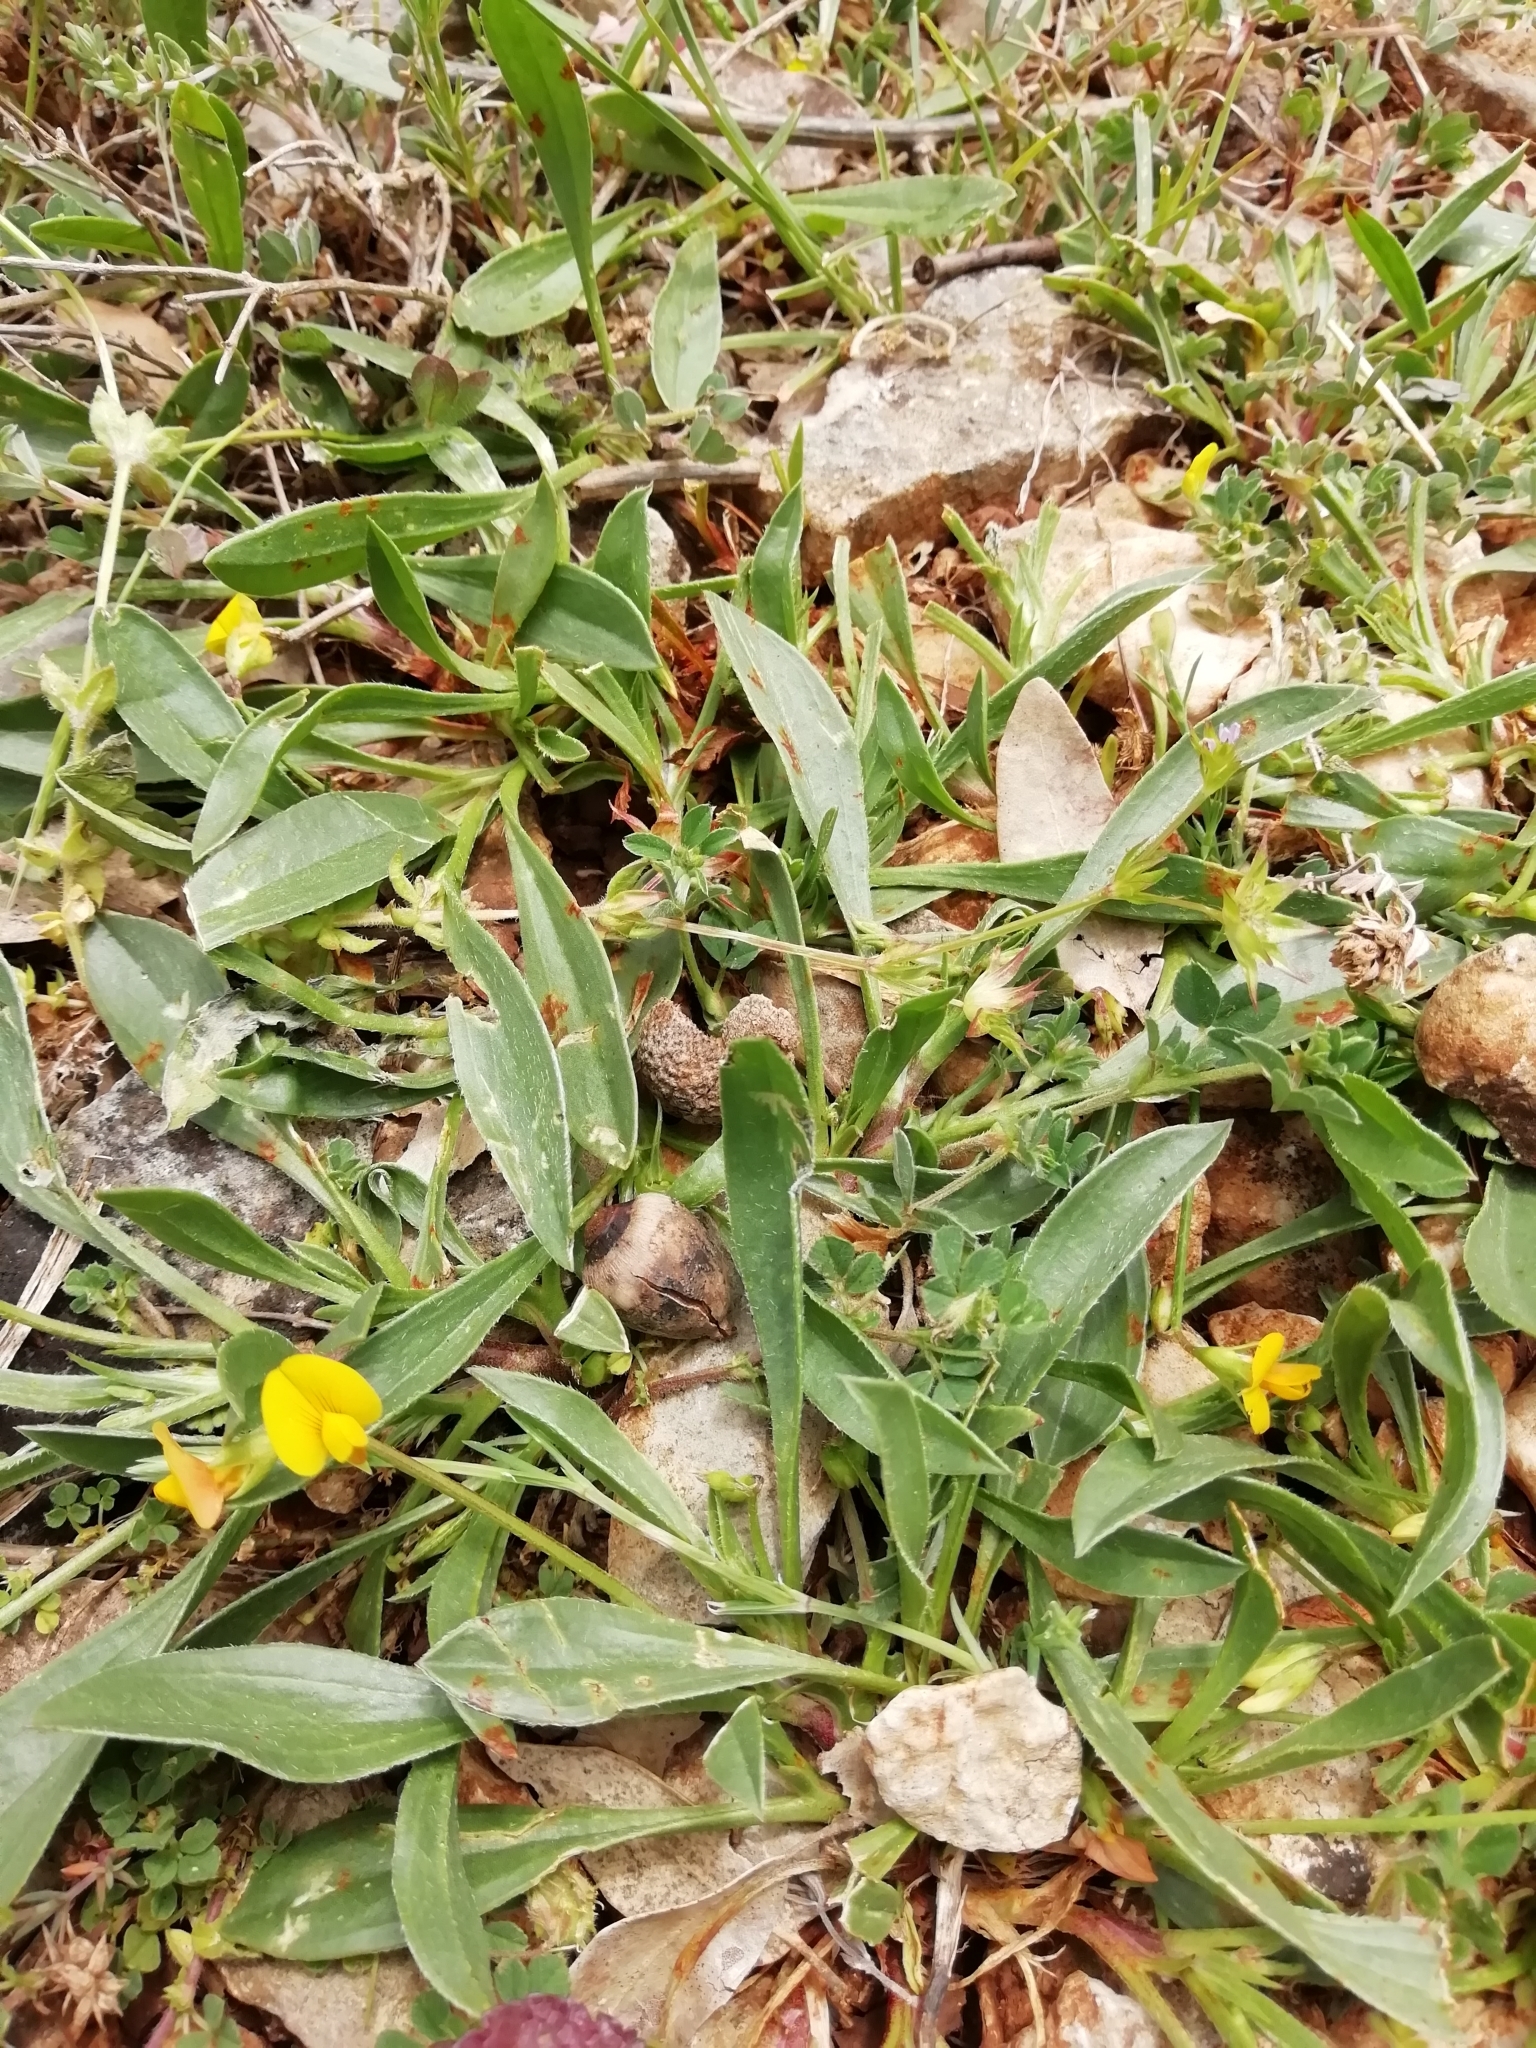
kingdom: Plantae
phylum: Tracheophyta
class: Magnoliopsida
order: Fabales
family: Fabaceae
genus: Scorpiurus
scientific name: Scorpiurus muricatus
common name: Caterpillar-plant
